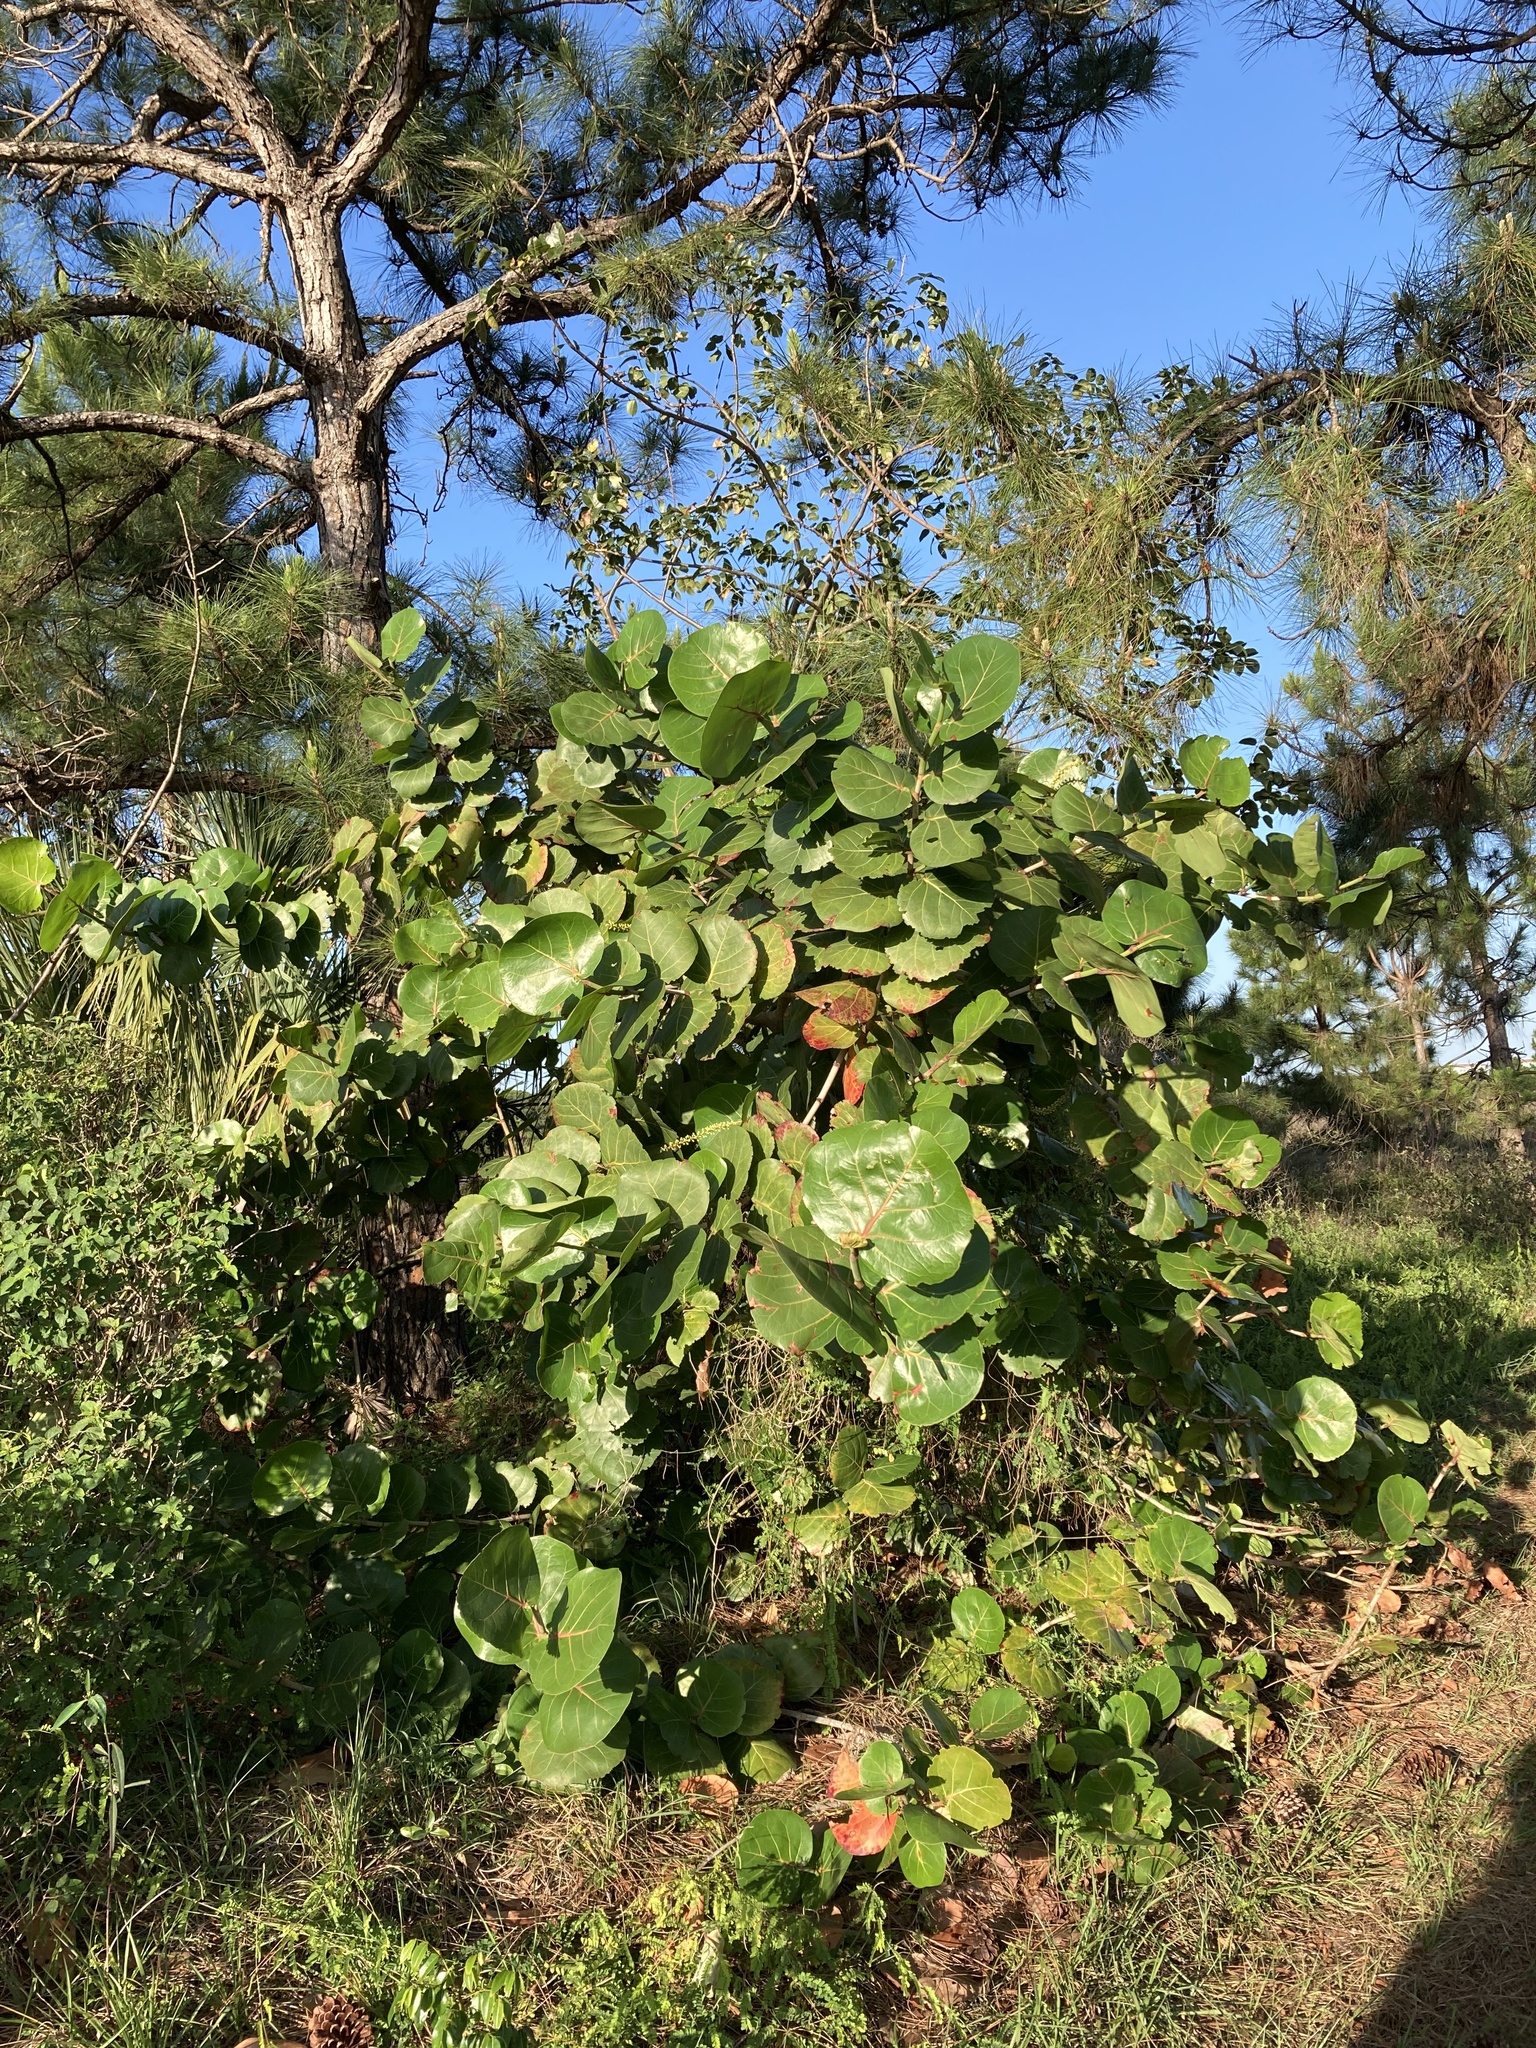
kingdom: Plantae
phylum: Tracheophyta
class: Magnoliopsida
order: Caryophyllales
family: Polygonaceae
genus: Coccoloba
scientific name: Coccoloba uvifera
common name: Seagrape
